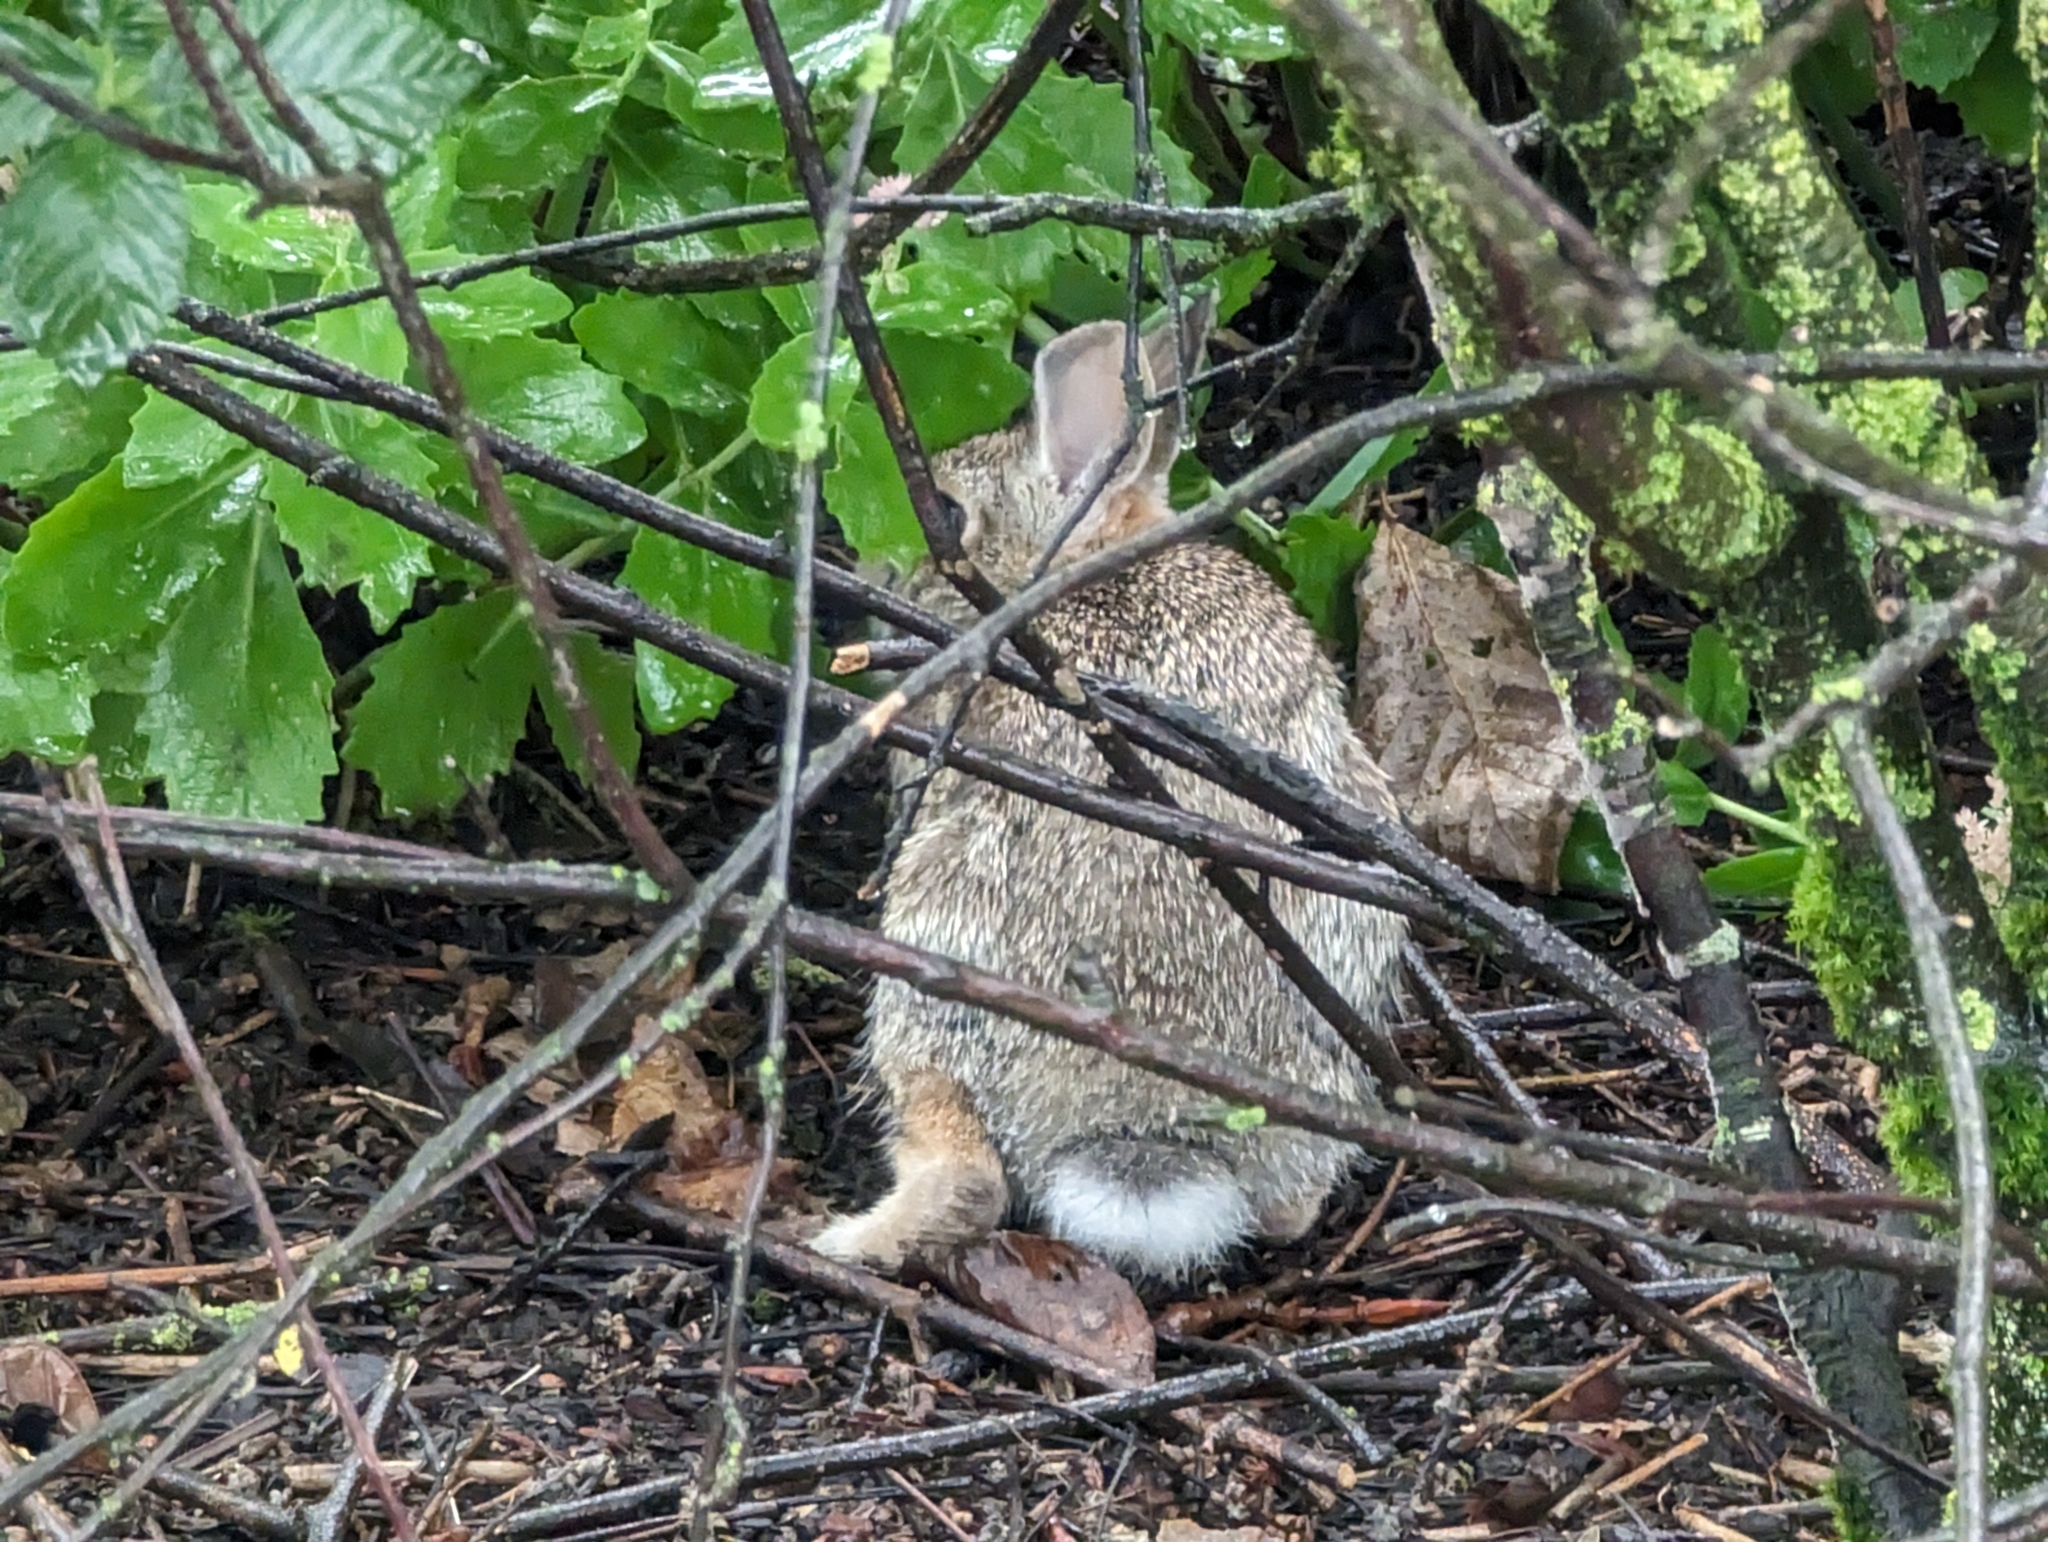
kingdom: Animalia
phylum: Chordata
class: Mammalia
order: Lagomorpha
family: Leporidae
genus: Sylvilagus
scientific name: Sylvilagus floridanus
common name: Eastern cottontail
